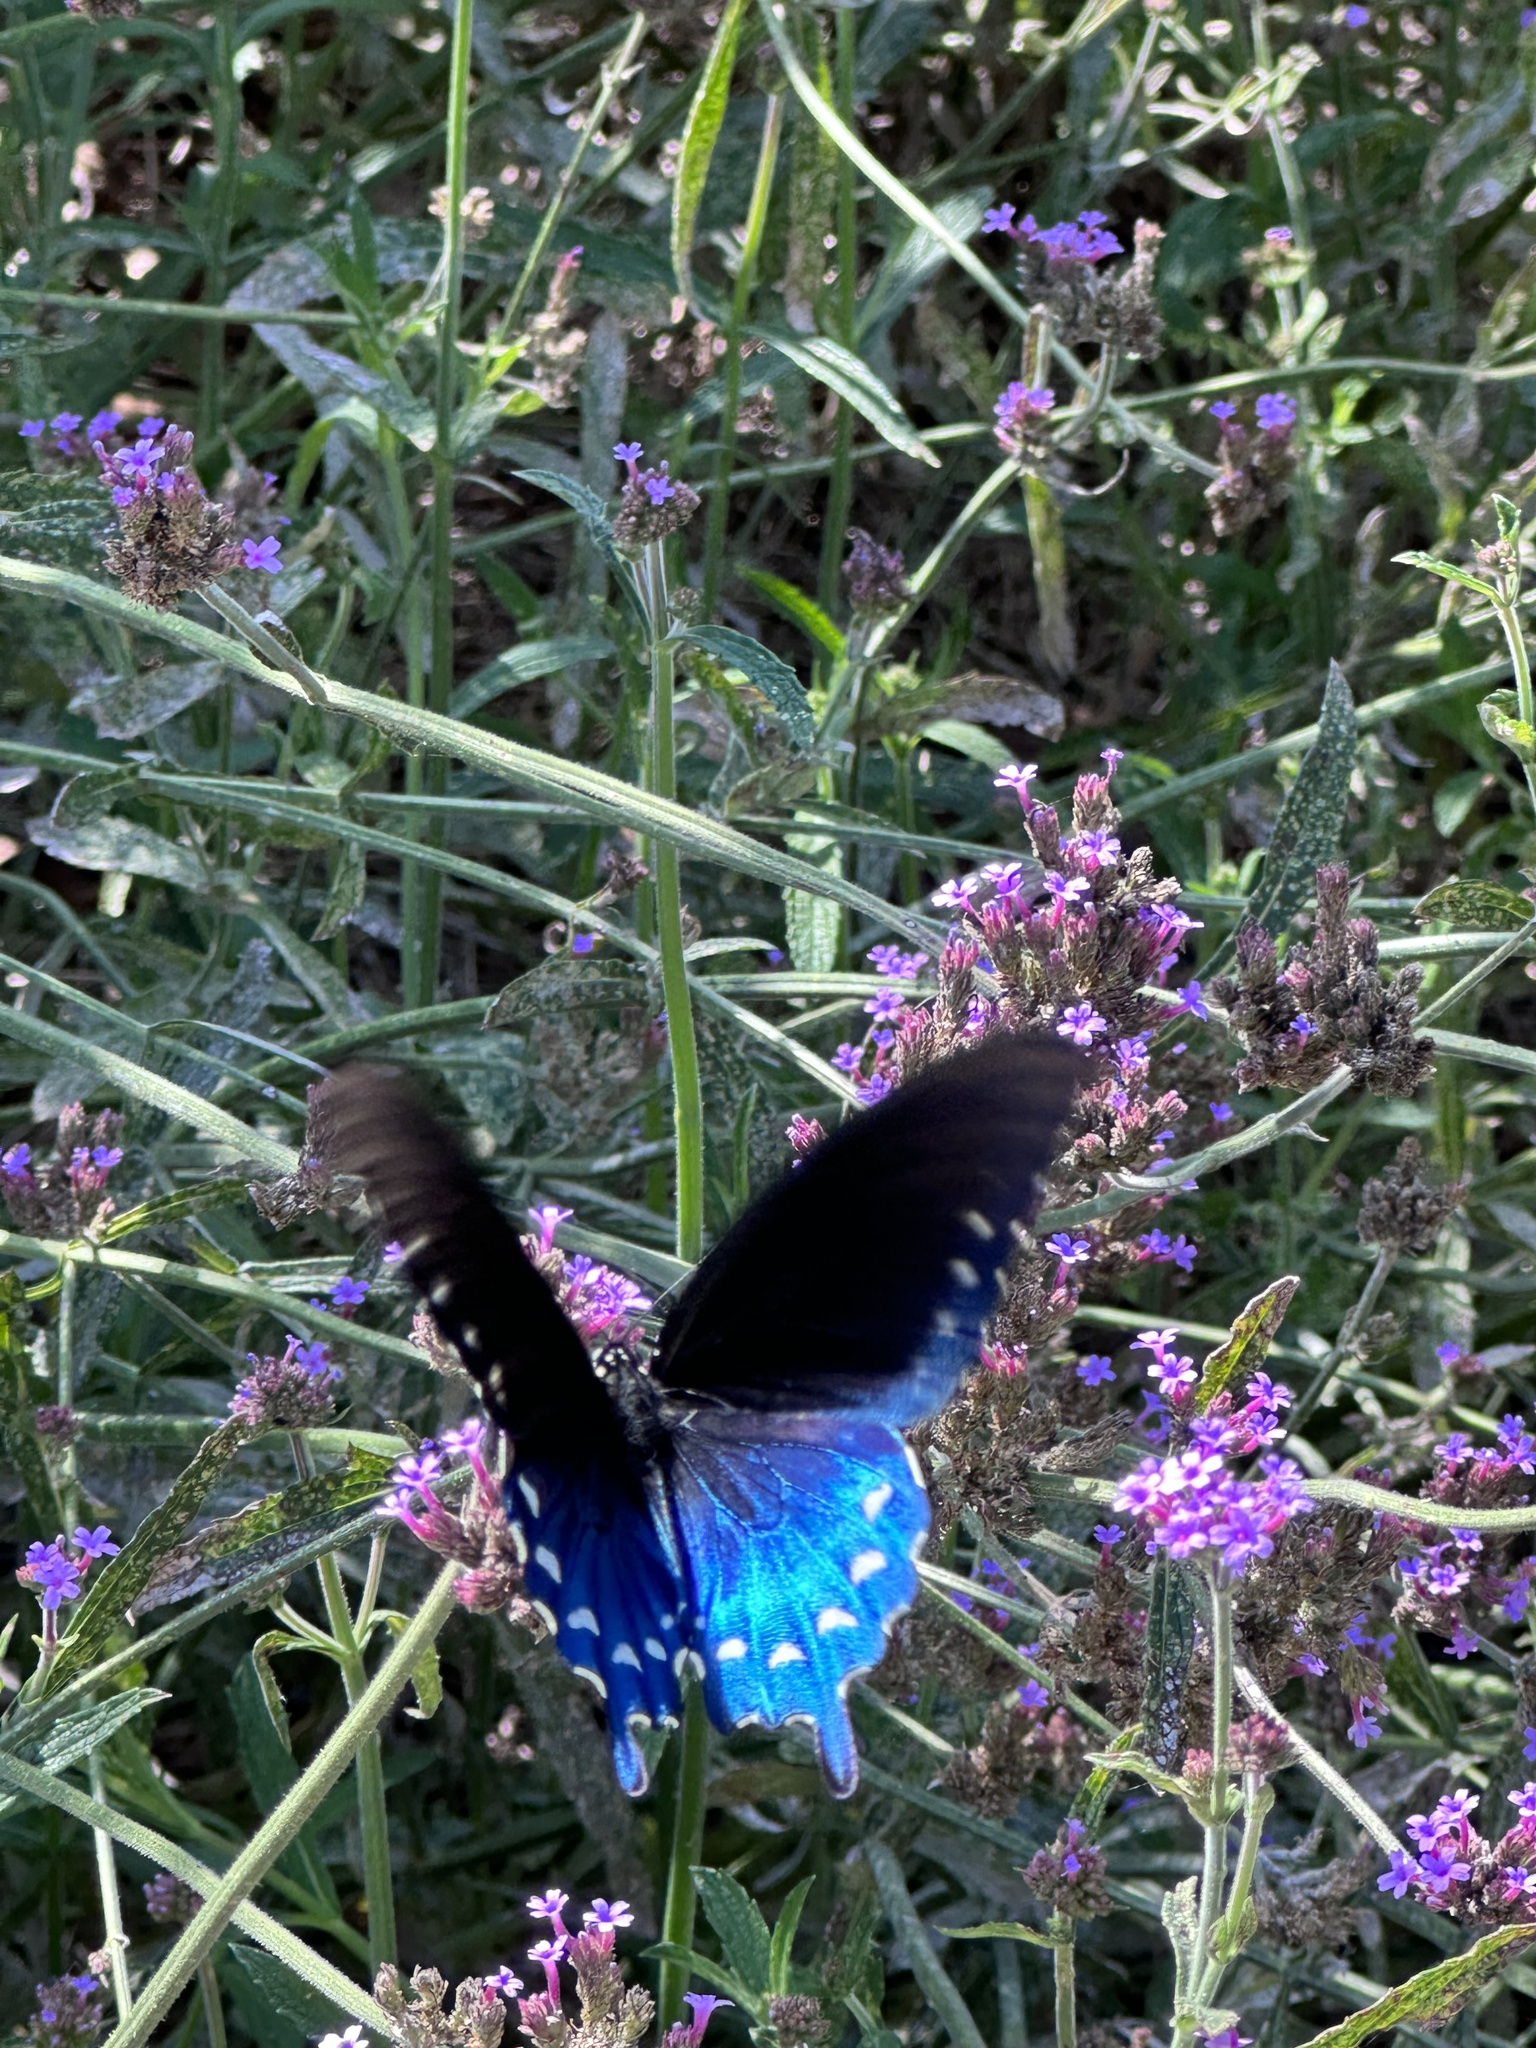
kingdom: Animalia
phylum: Arthropoda
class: Insecta
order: Lepidoptera
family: Papilionidae
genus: Battus
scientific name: Battus philenor
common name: Pipevine swallowtail
